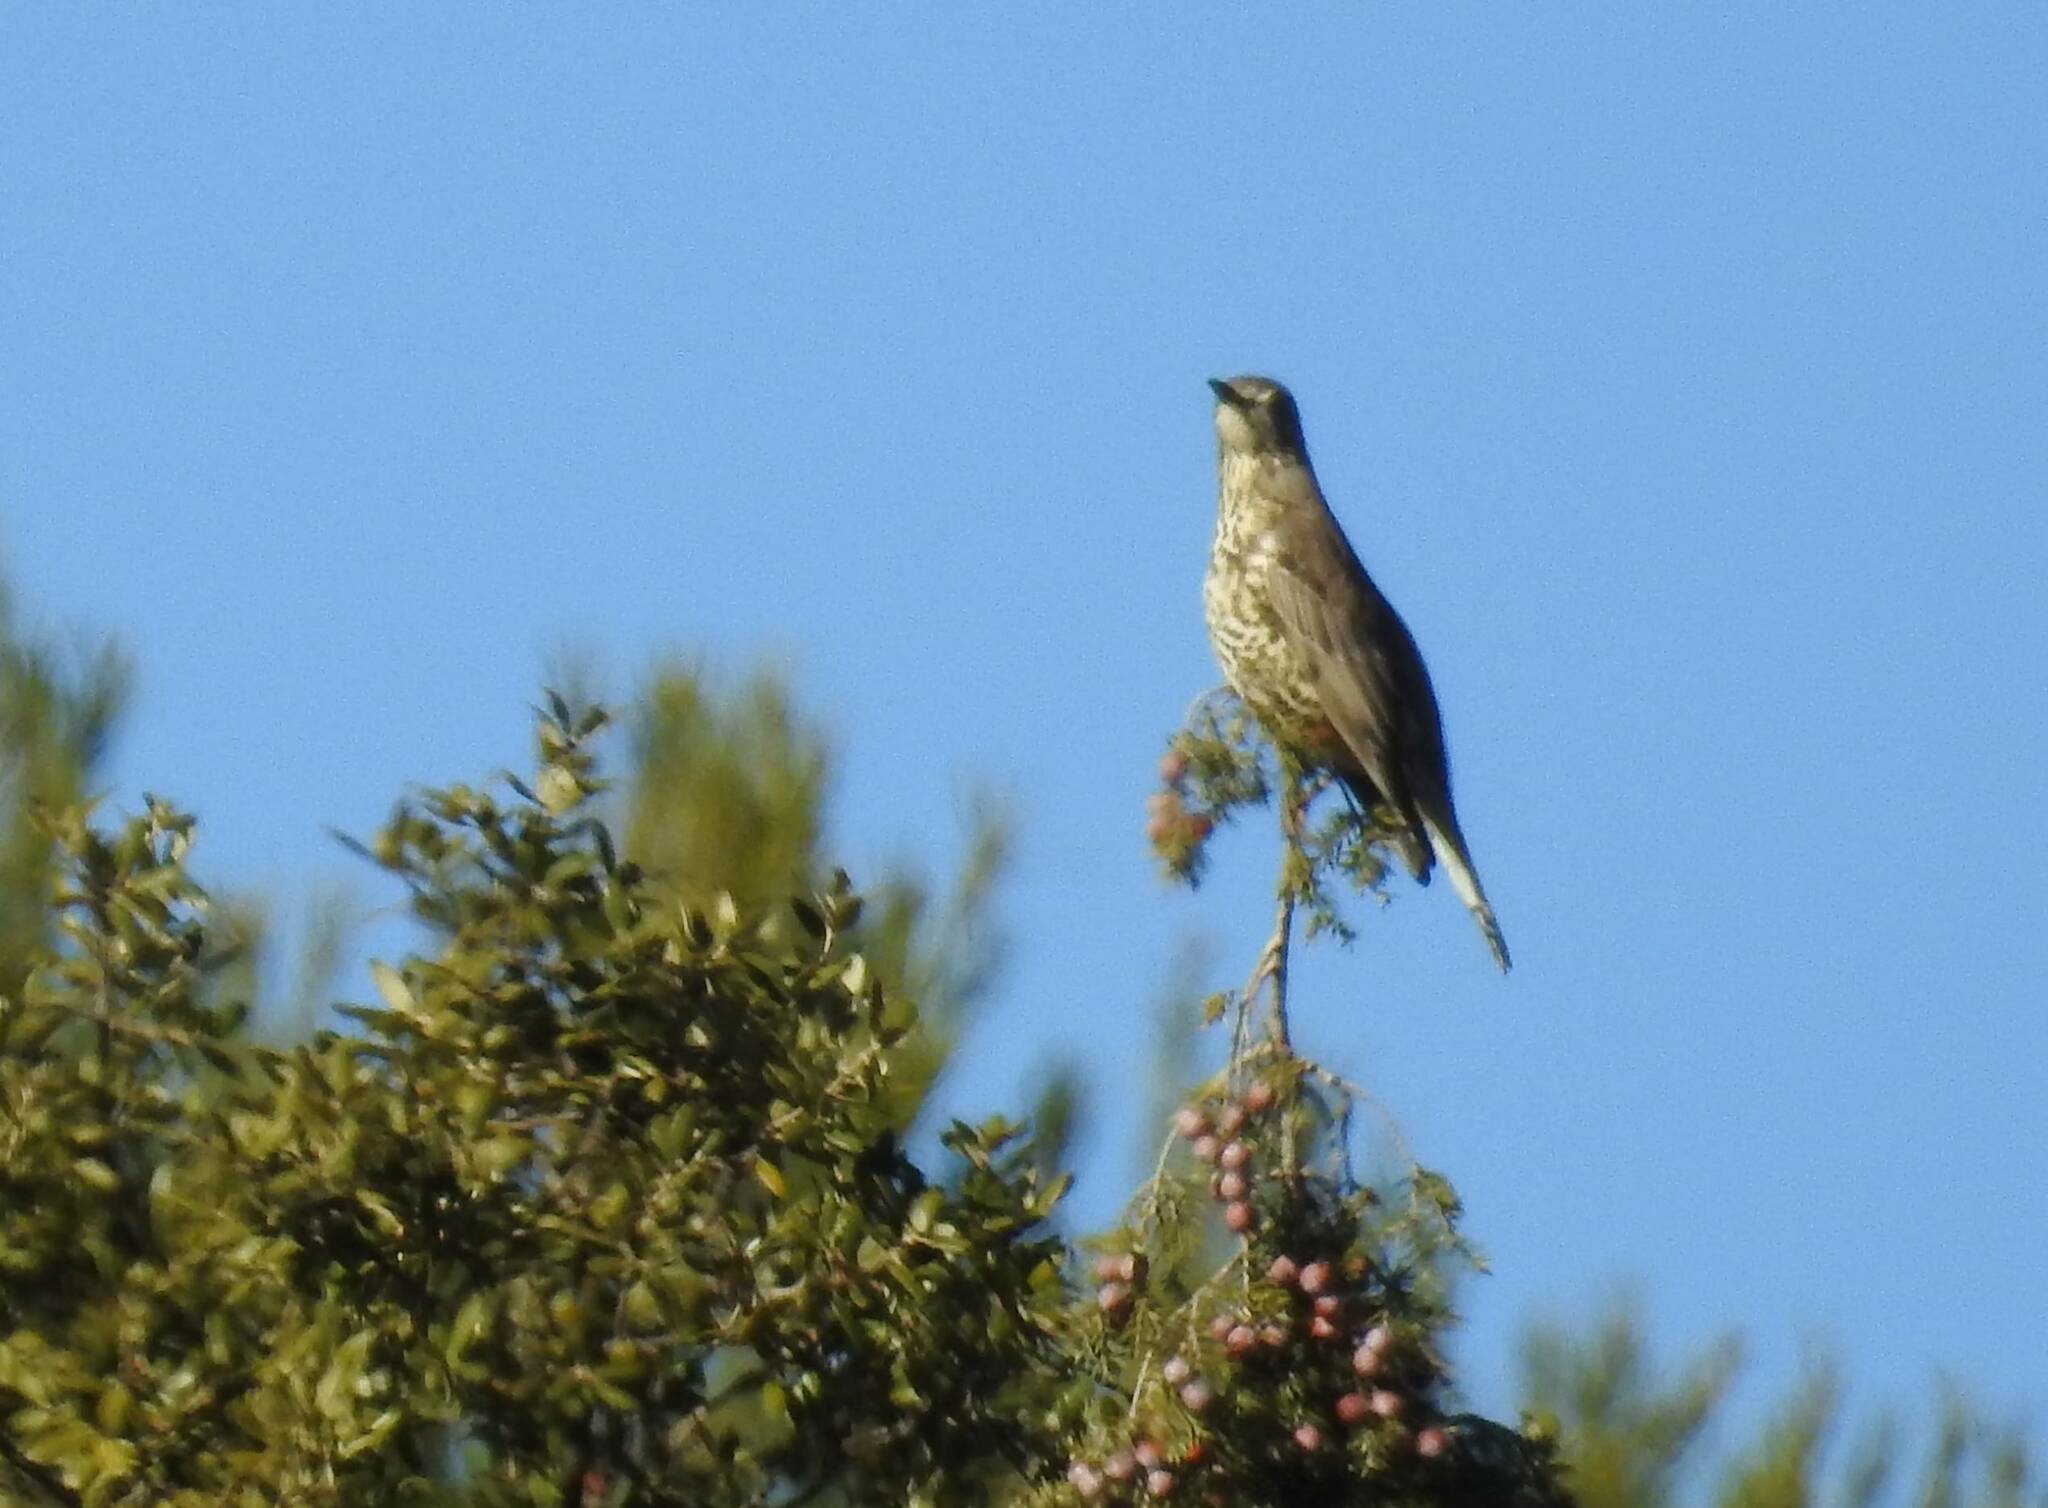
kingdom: Animalia
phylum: Chordata
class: Aves
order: Passeriformes
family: Turdidae
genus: Turdus
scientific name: Turdus viscivorus
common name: Mistle thrush
